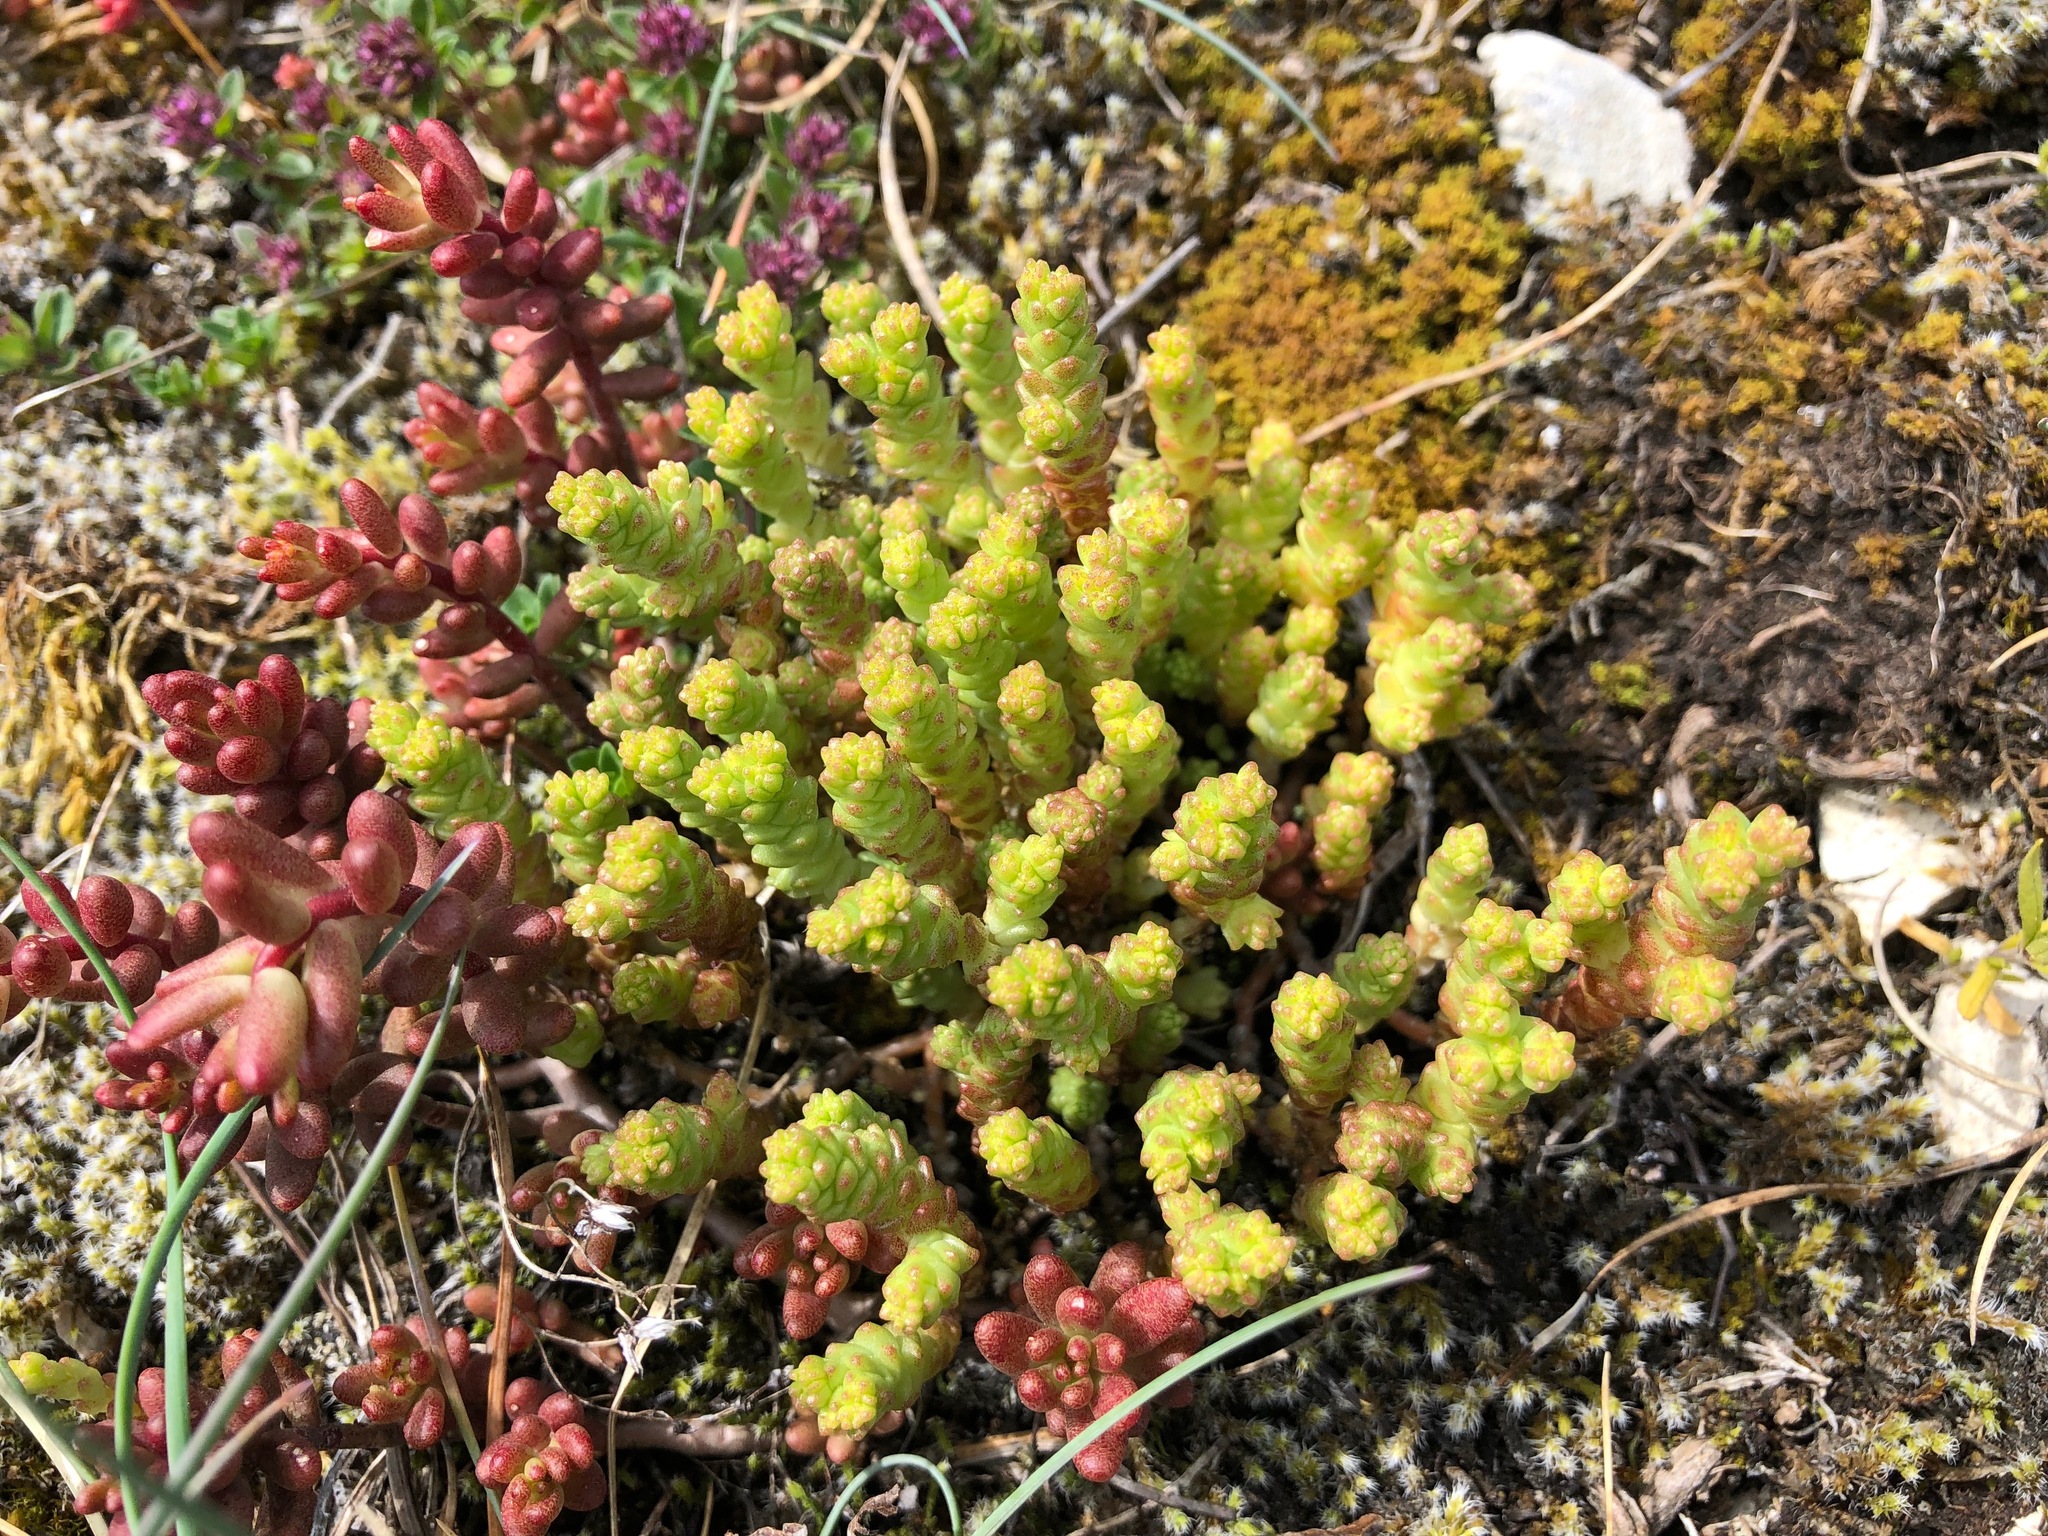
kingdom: Plantae
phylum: Tracheophyta
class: Magnoliopsida
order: Saxifragales
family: Crassulaceae
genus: Sedum
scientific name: Sedum acre
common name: Biting stonecrop
